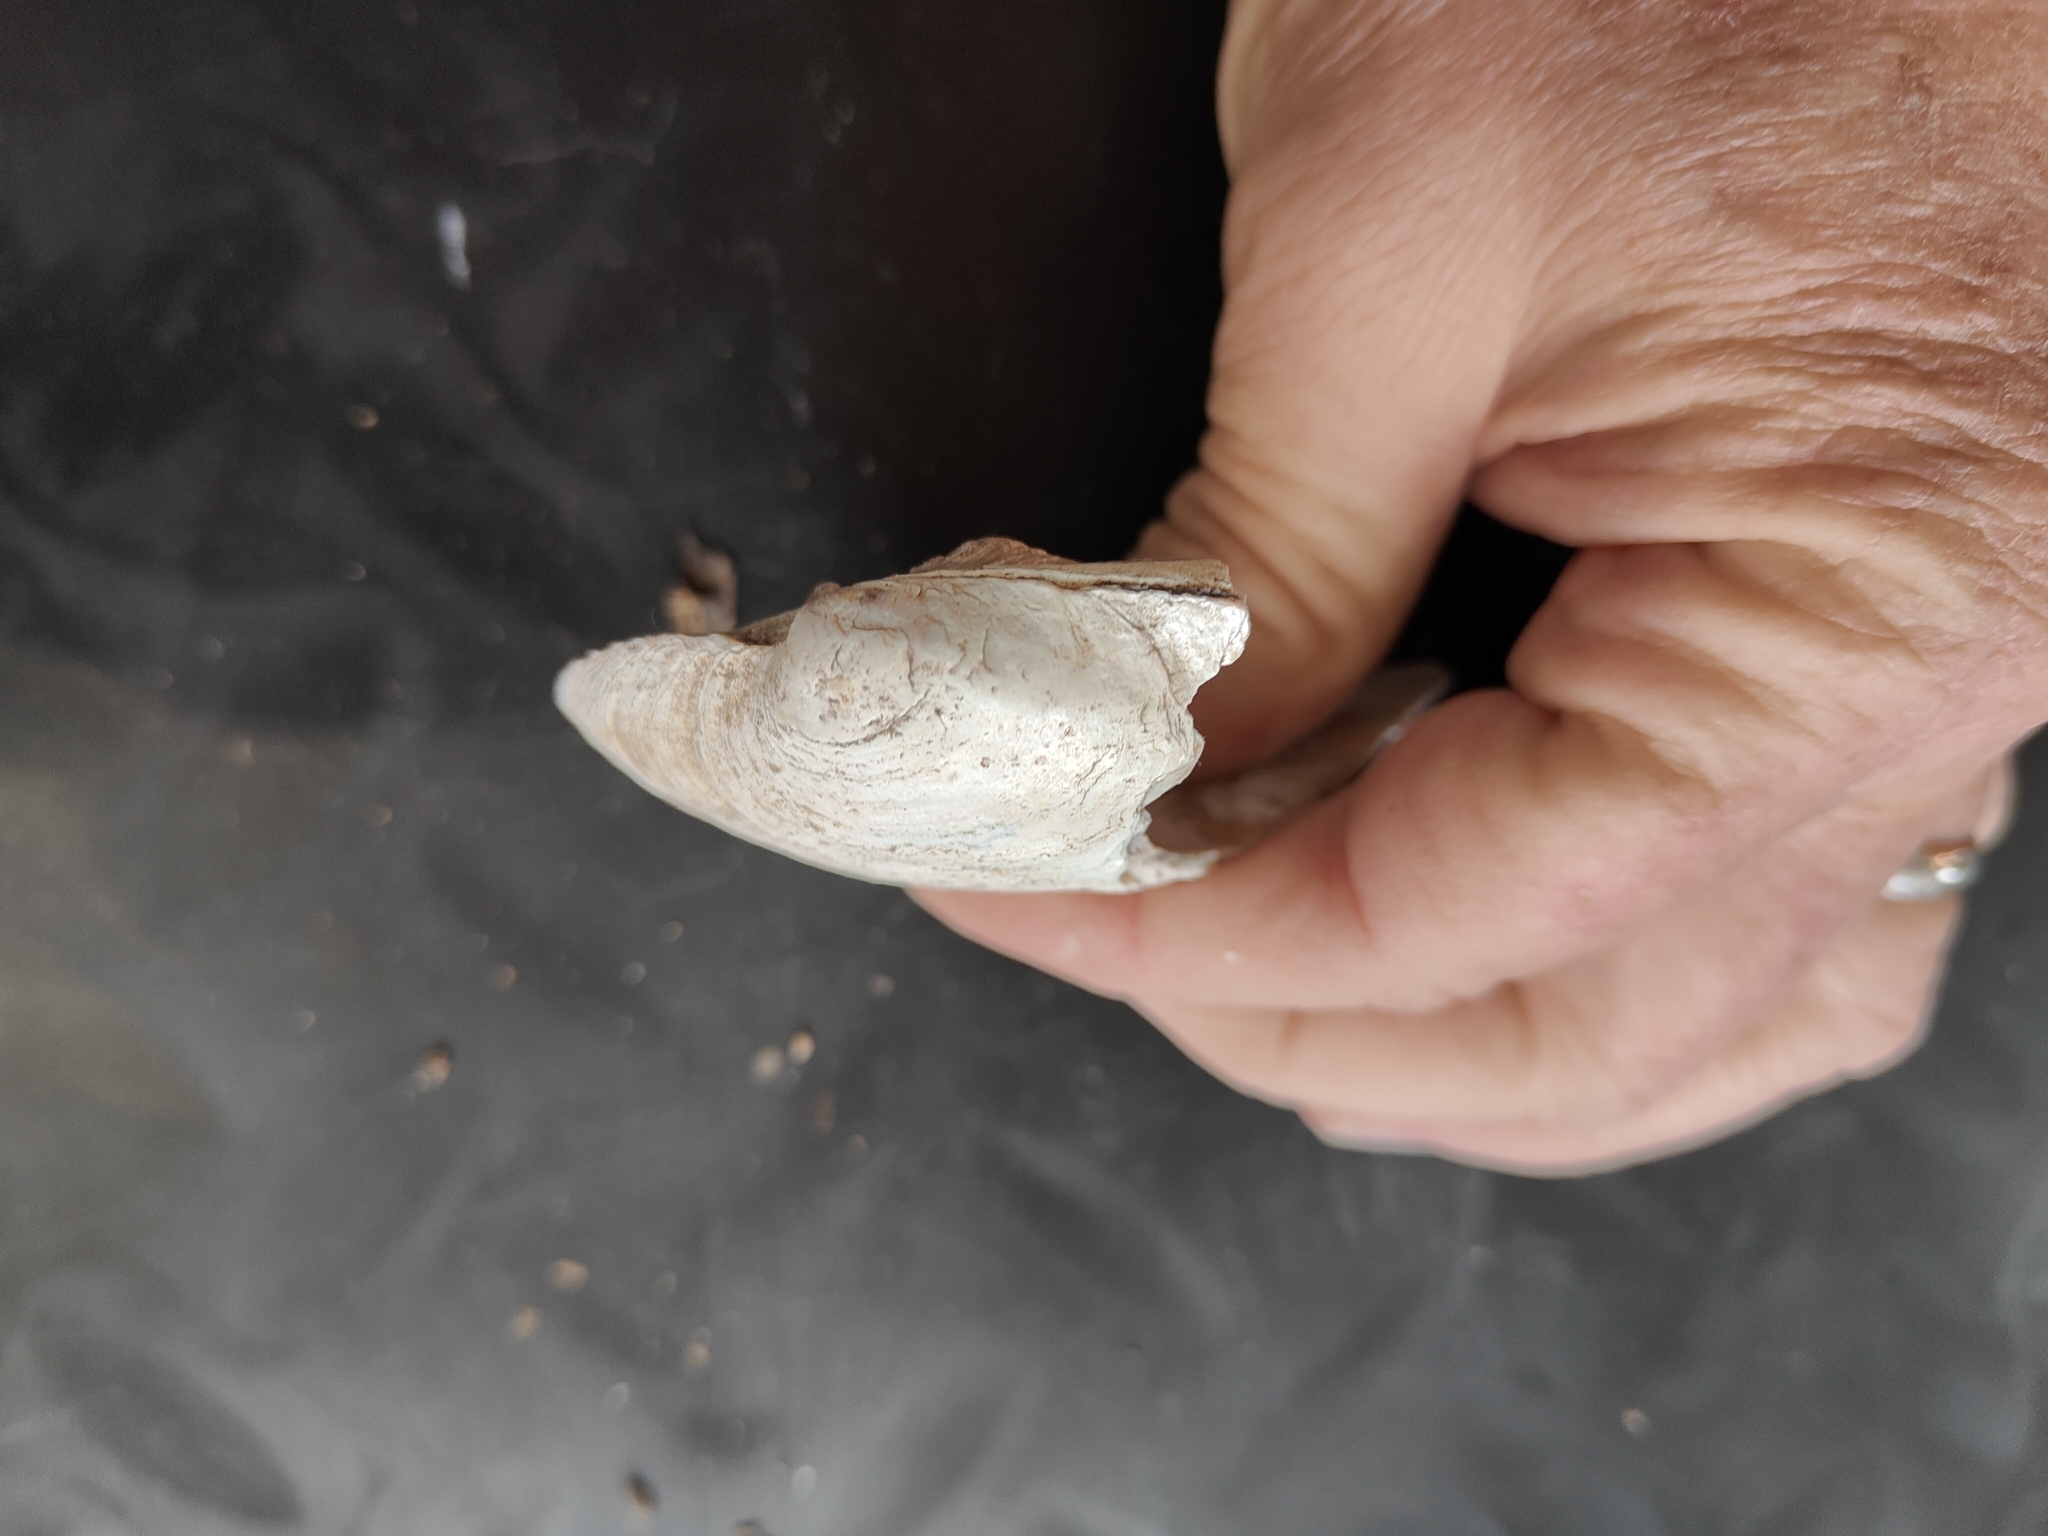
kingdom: Animalia
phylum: Mollusca
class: Bivalvia
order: Unionida
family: Unionidae
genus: Amblema
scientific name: Amblema plicata
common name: Threeridge
